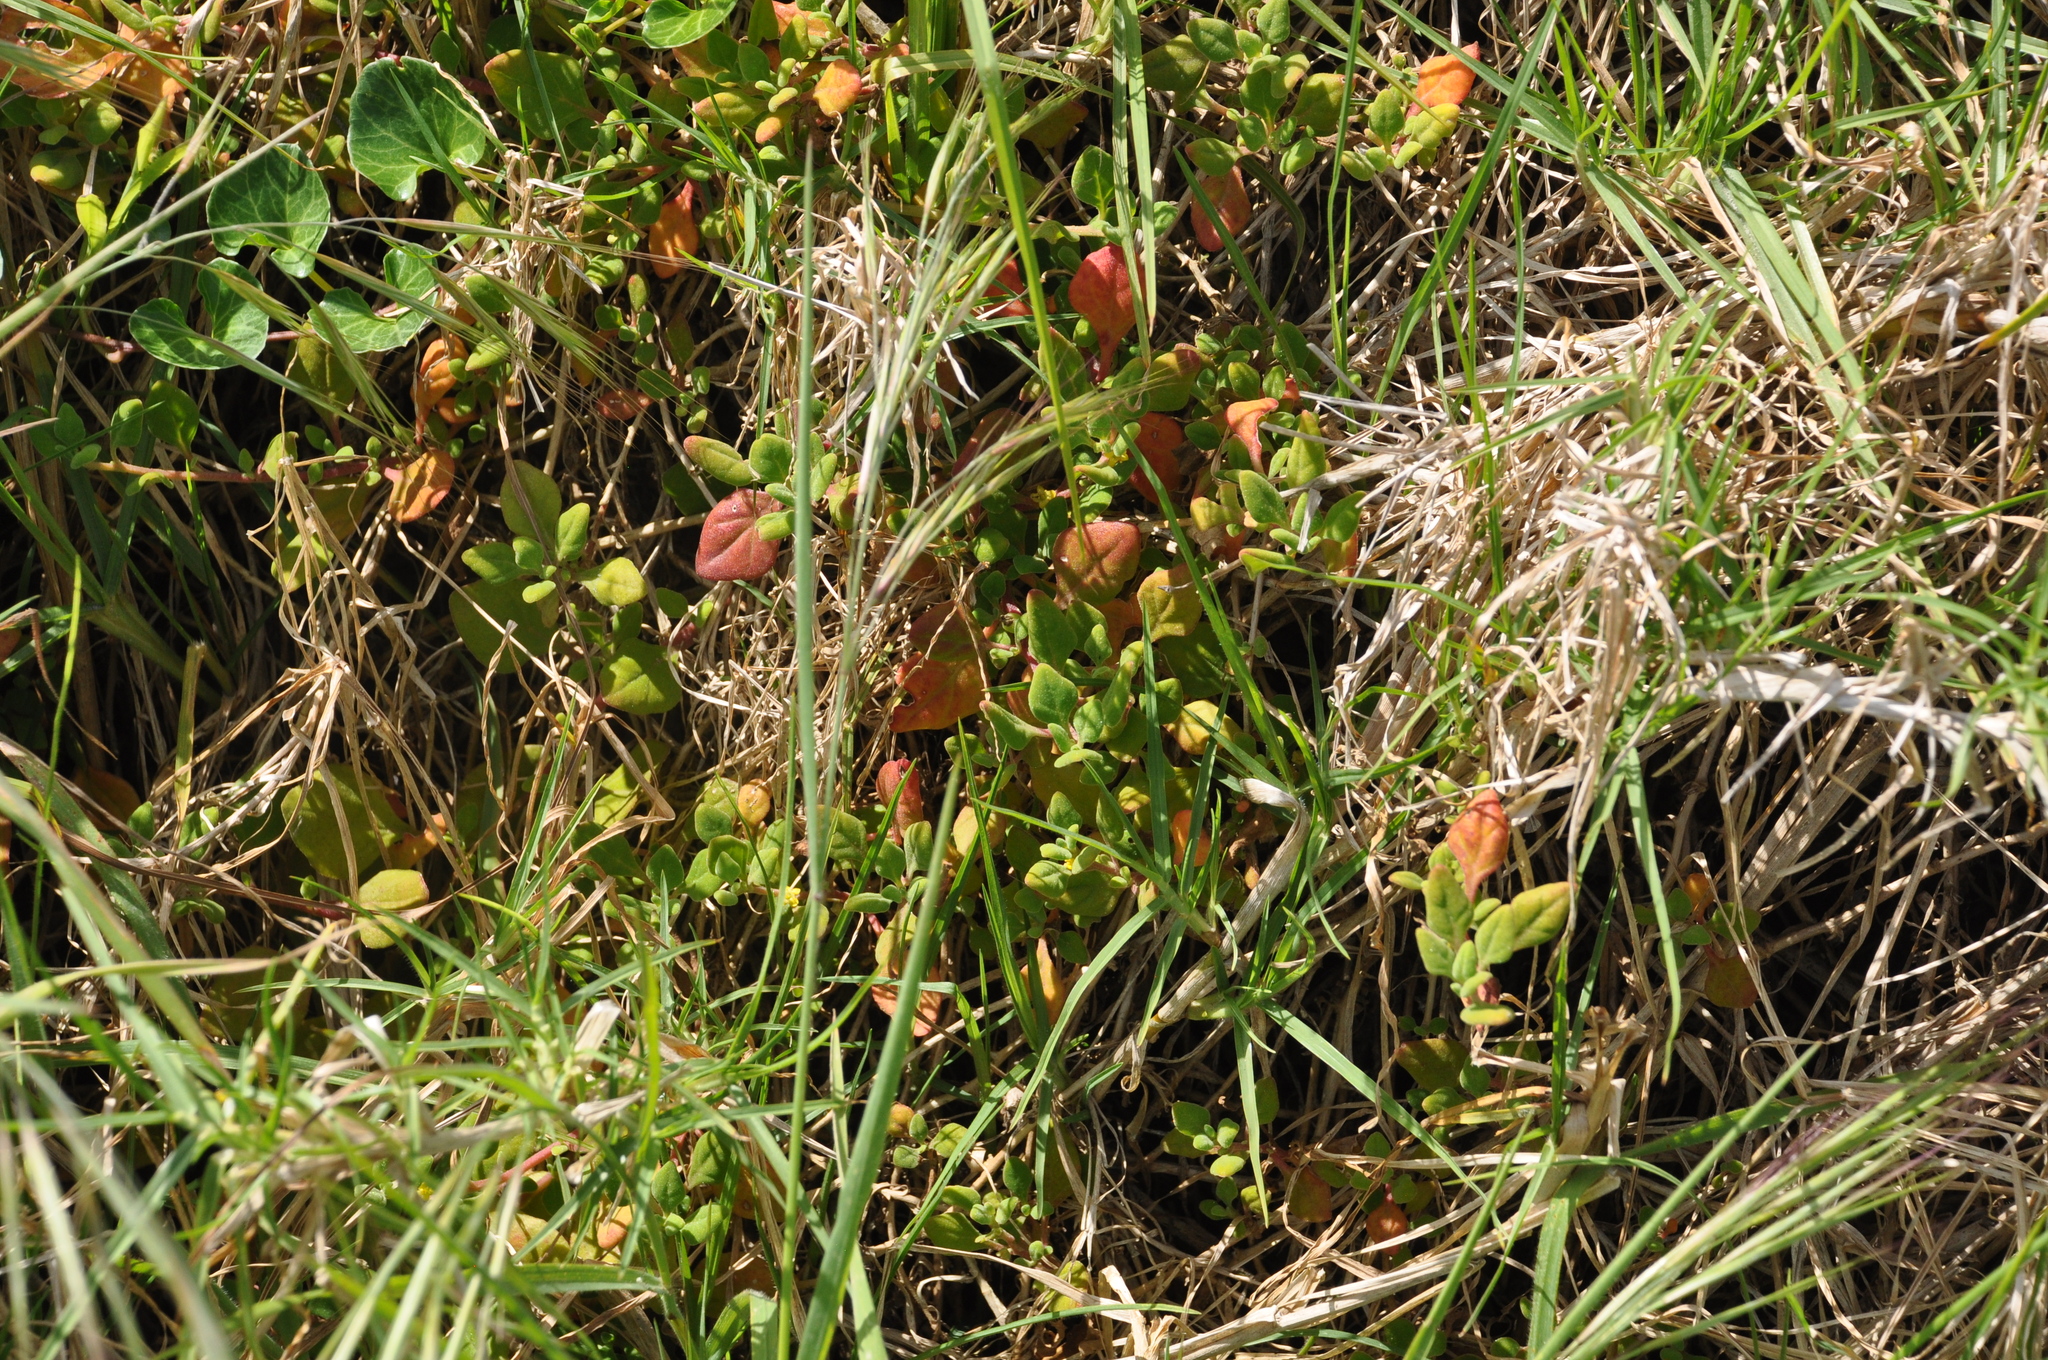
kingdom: Plantae
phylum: Tracheophyta
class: Magnoliopsida
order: Caryophyllales
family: Aizoaceae
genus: Tetragonia
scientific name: Tetragonia implexicoma
